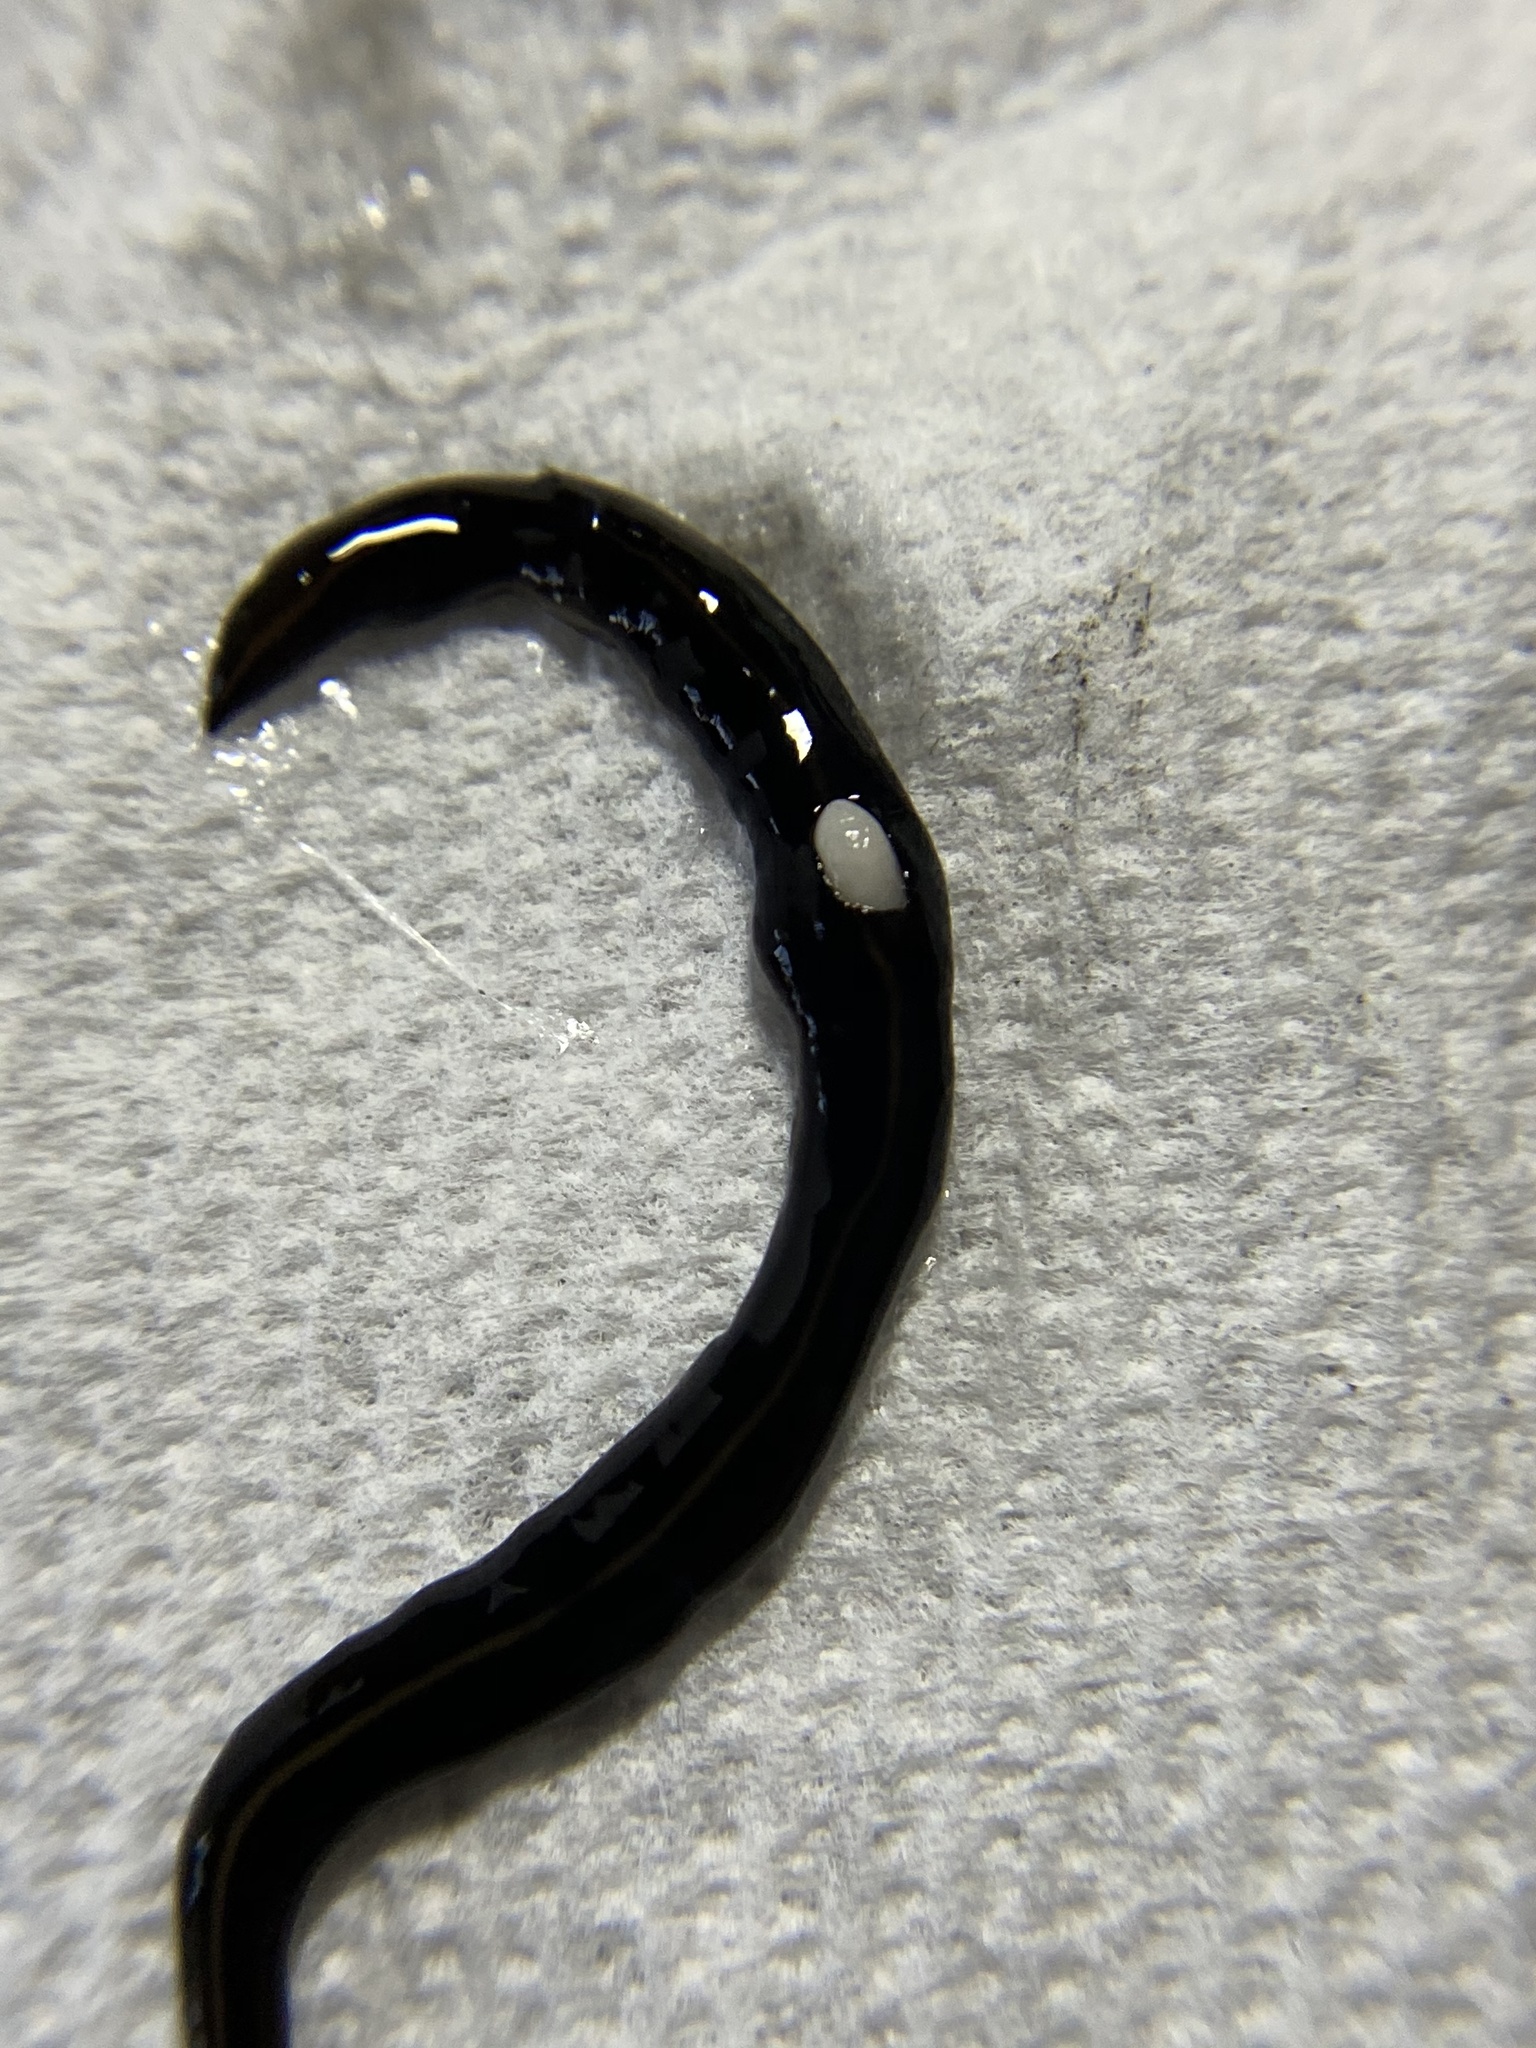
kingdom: Animalia
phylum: Platyhelminthes
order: Tricladida
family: Geoplanidae
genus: Platydemus
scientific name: Platydemus manokwari
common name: New guinea flatworm
